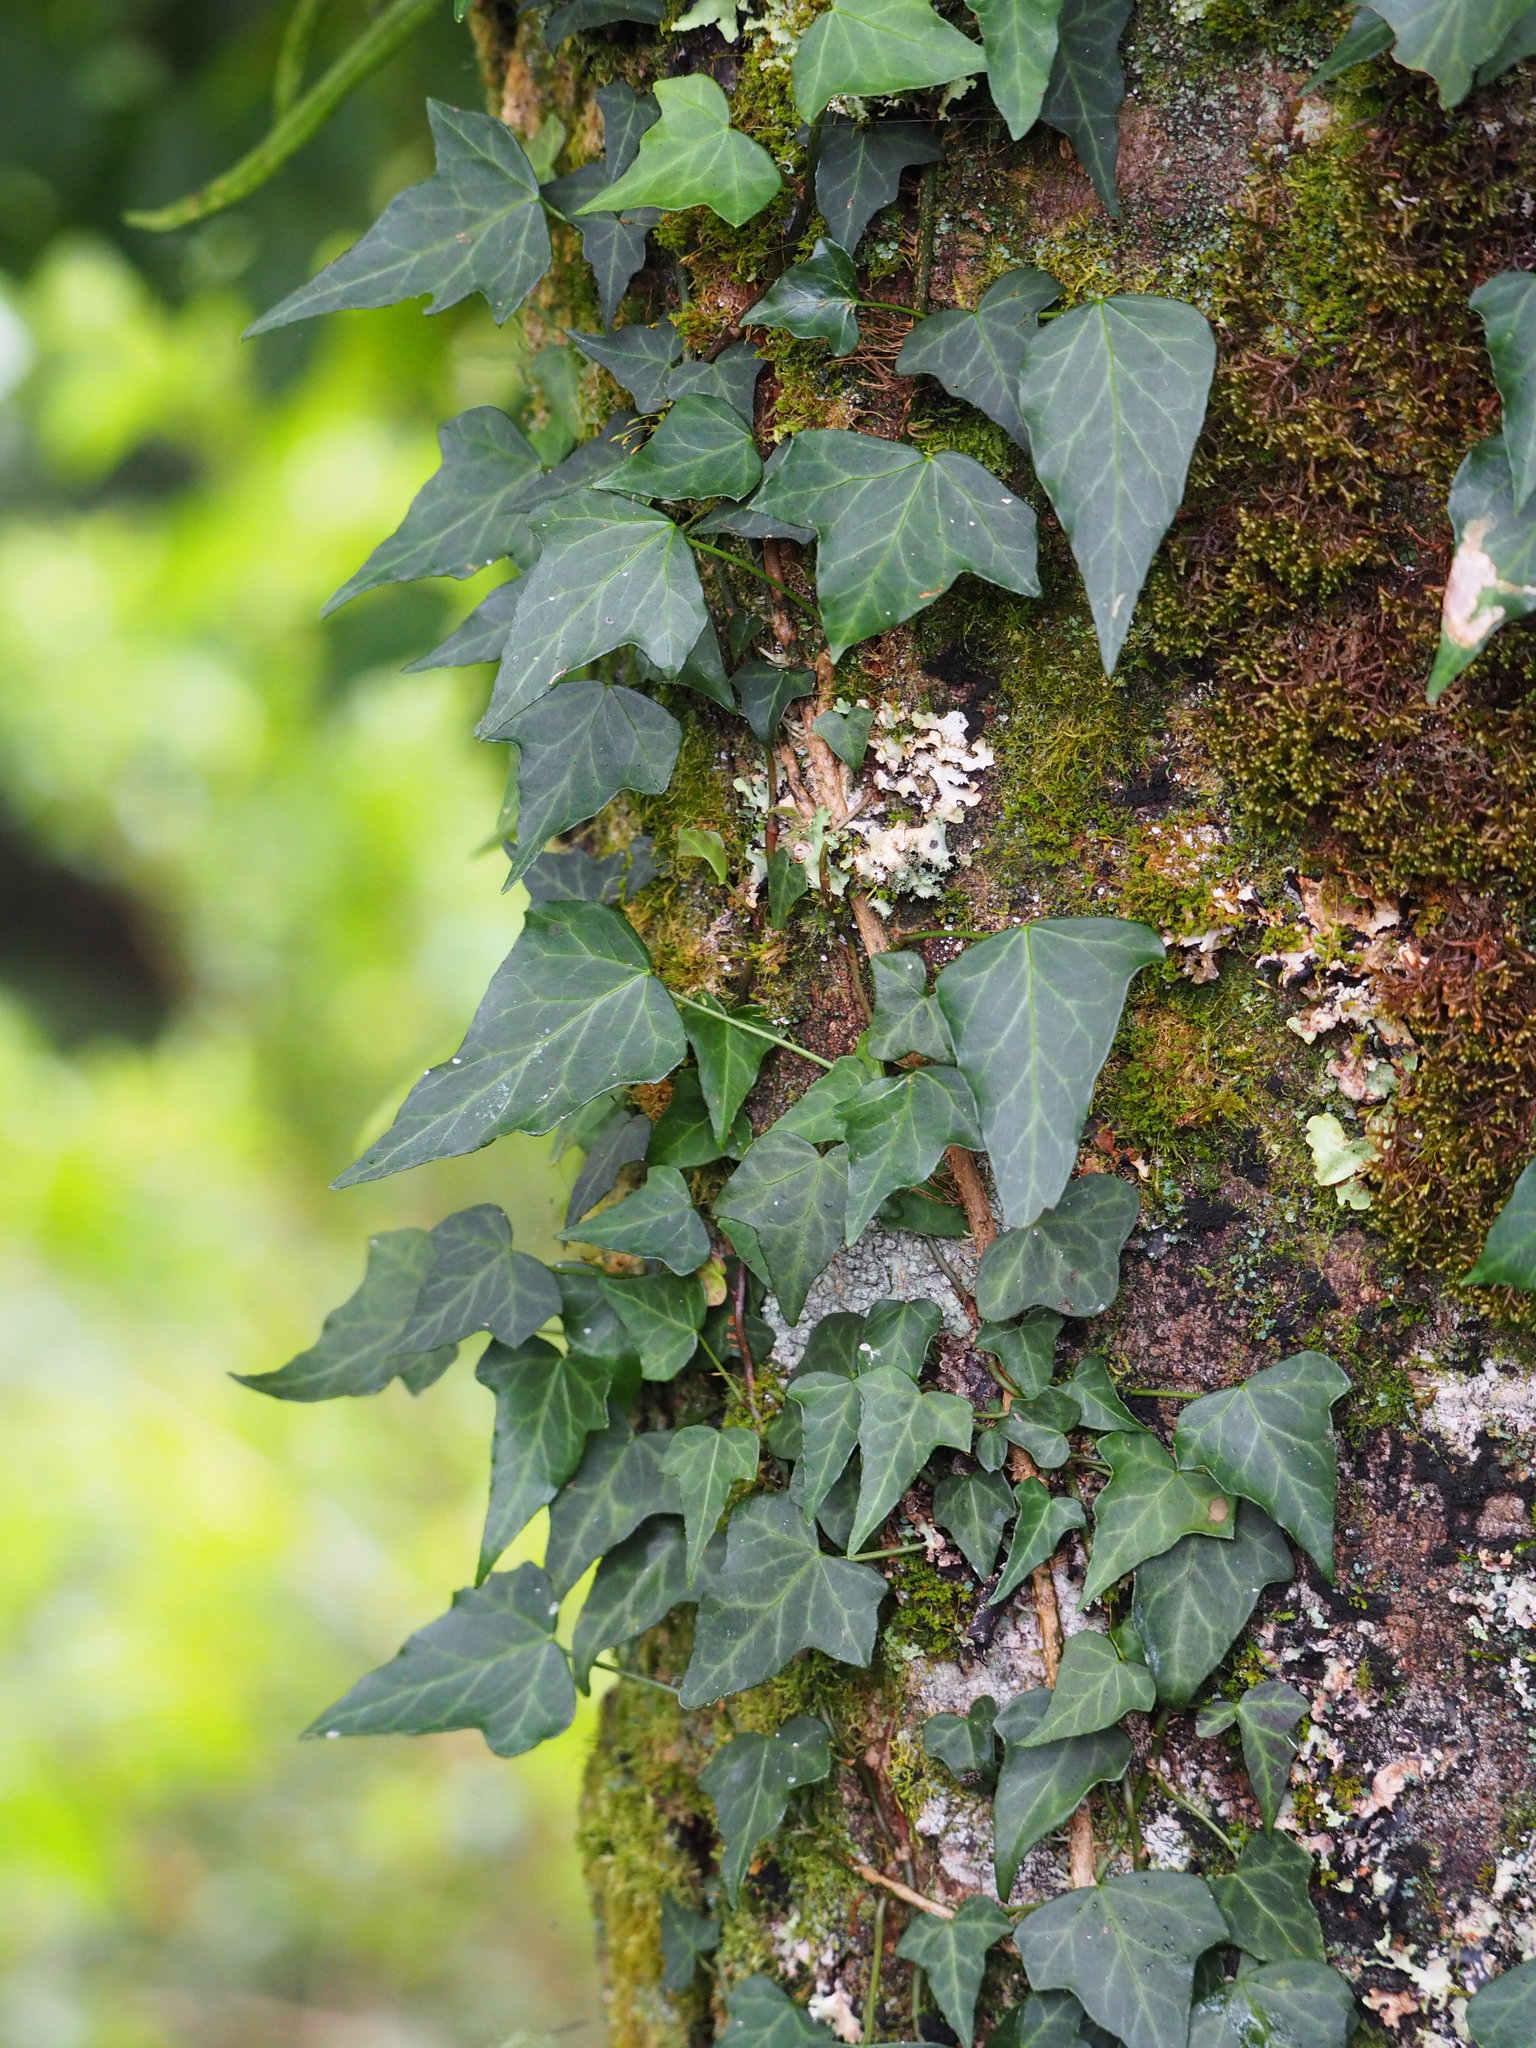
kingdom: Plantae
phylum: Tracheophyta
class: Magnoliopsida
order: Apiales
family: Araliaceae
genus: Hedera
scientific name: Hedera rhombea
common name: Japanese ivy
